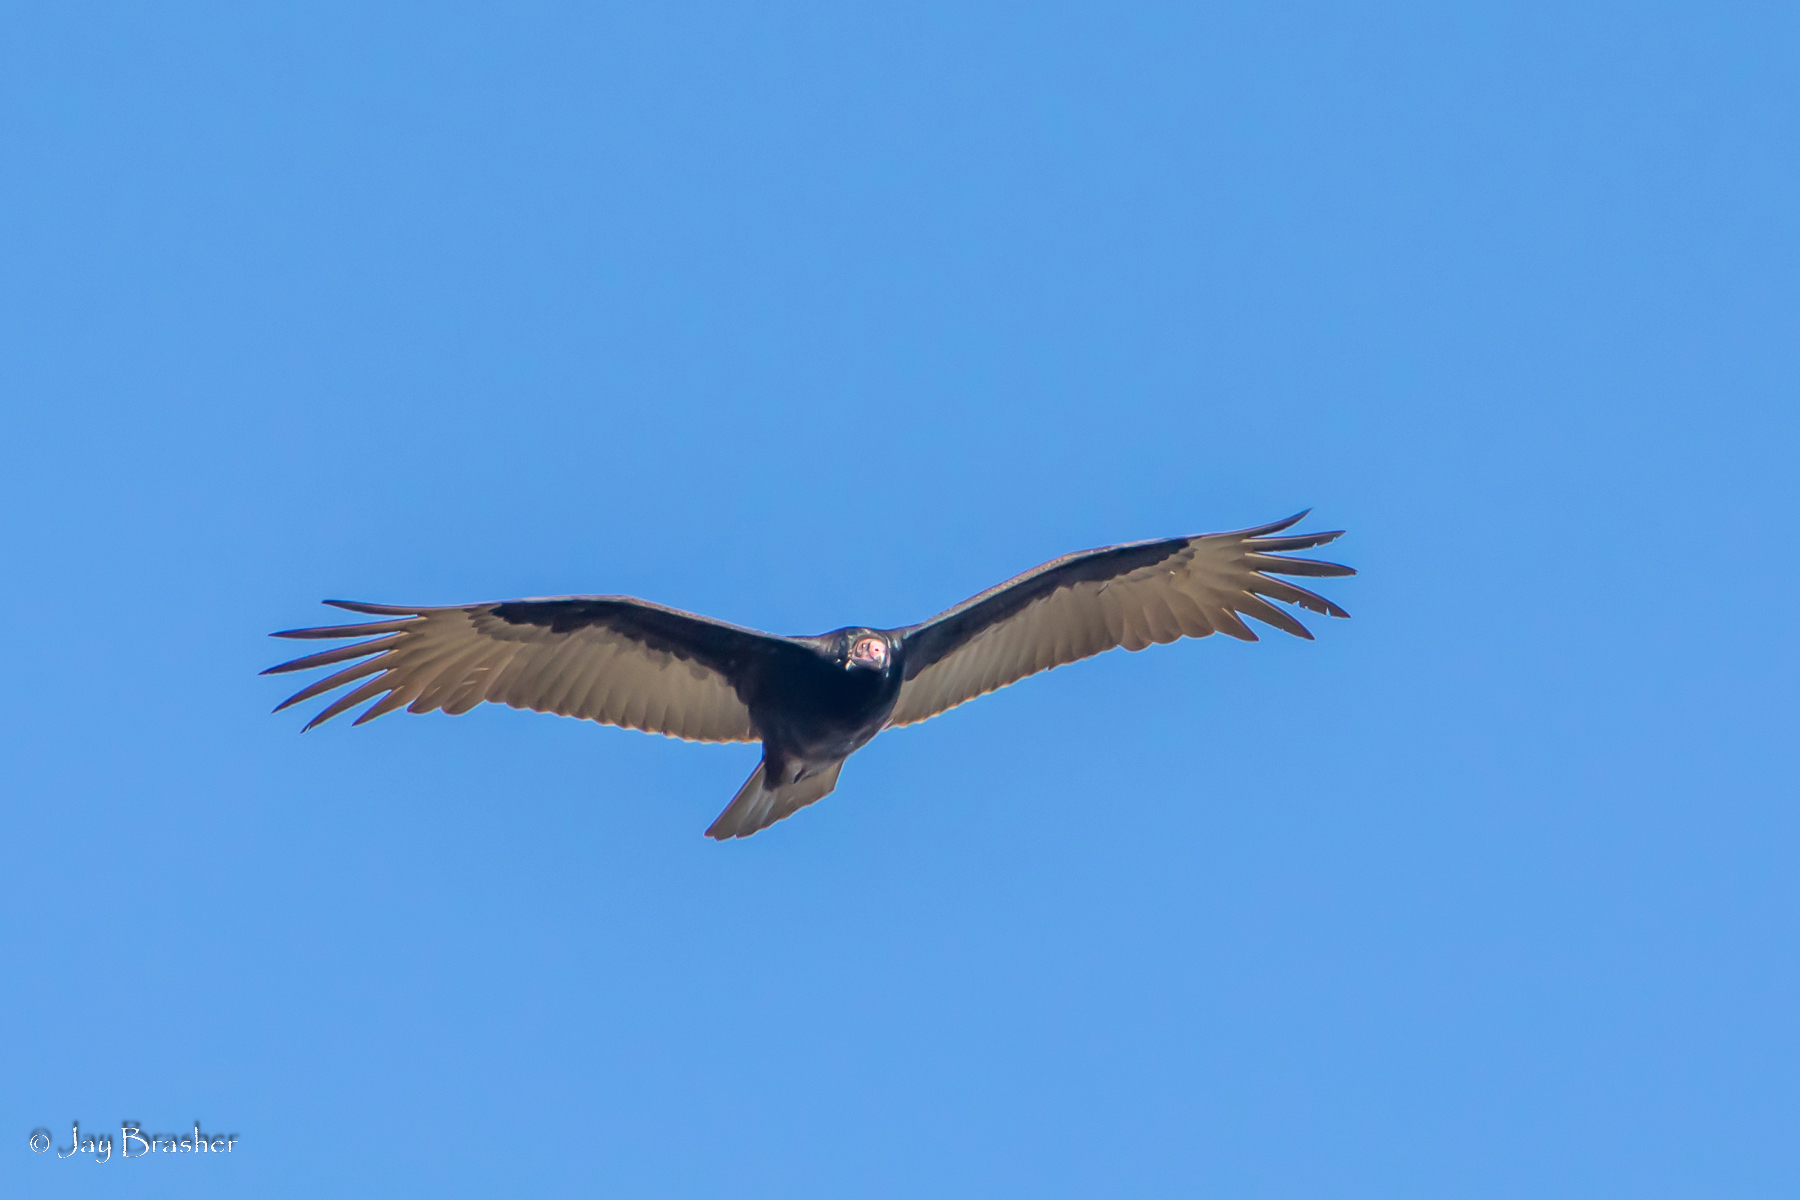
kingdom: Animalia
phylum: Chordata
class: Aves
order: Accipitriformes
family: Cathartidae
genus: Cathartes
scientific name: Cathartes aura
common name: Turkey vulture
